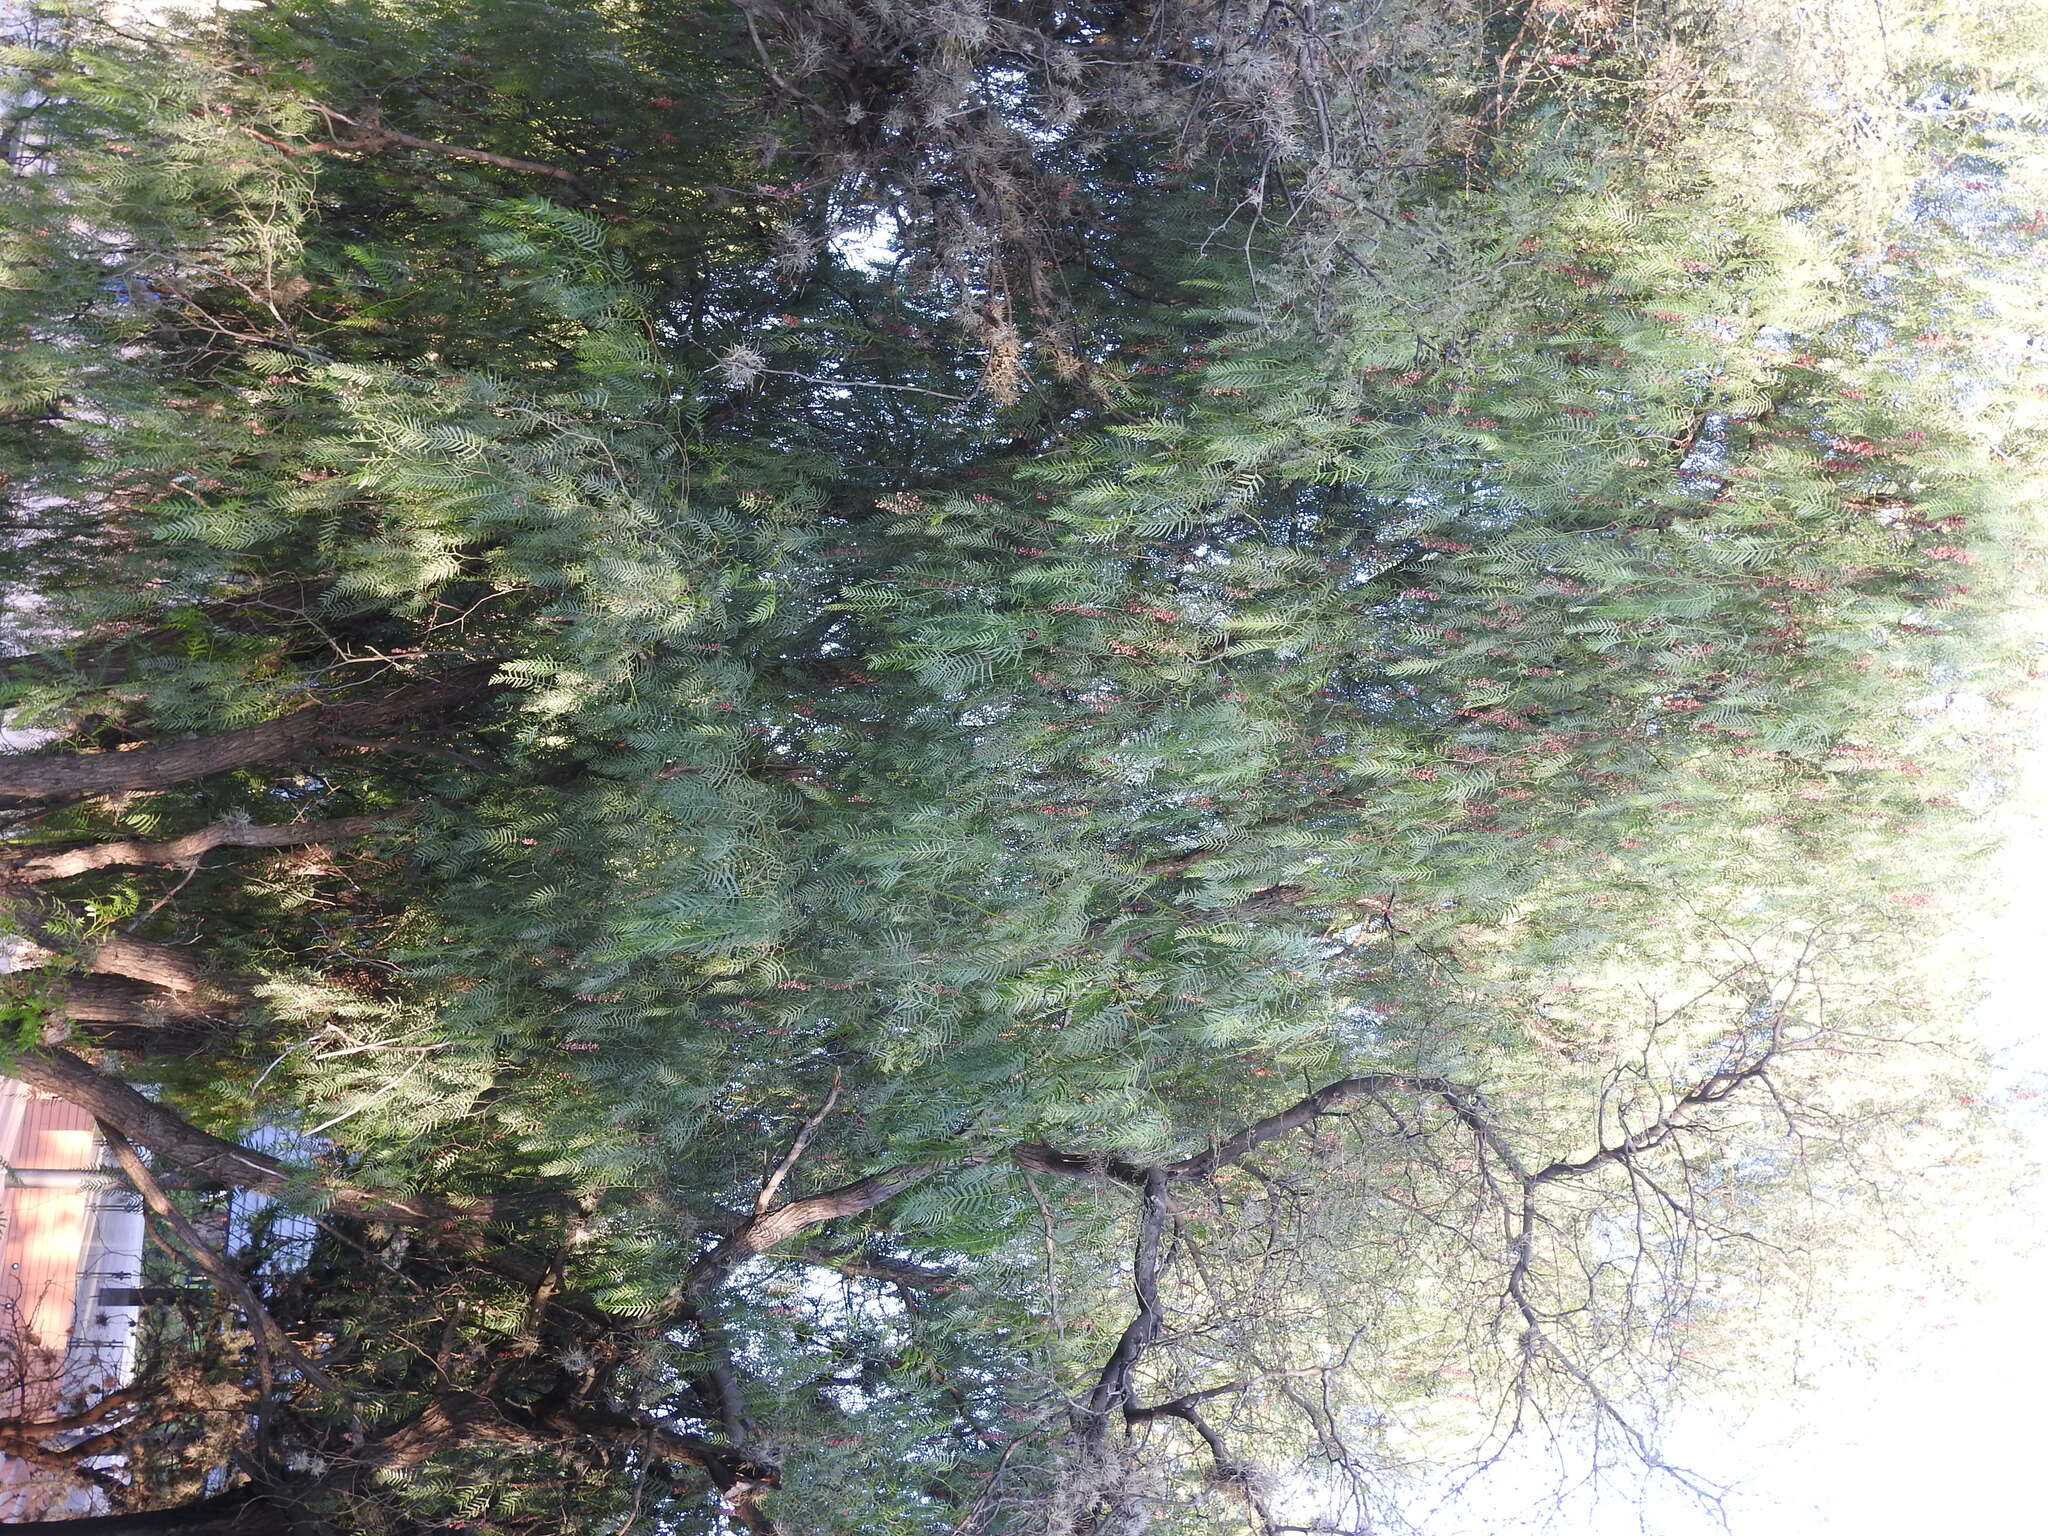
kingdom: Plantae
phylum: Tracheophyta
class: Magnoliopsida
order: Sapindales
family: Anacardiaceae
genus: Schinus
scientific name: Schinus molle
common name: Peruvian peppertree
